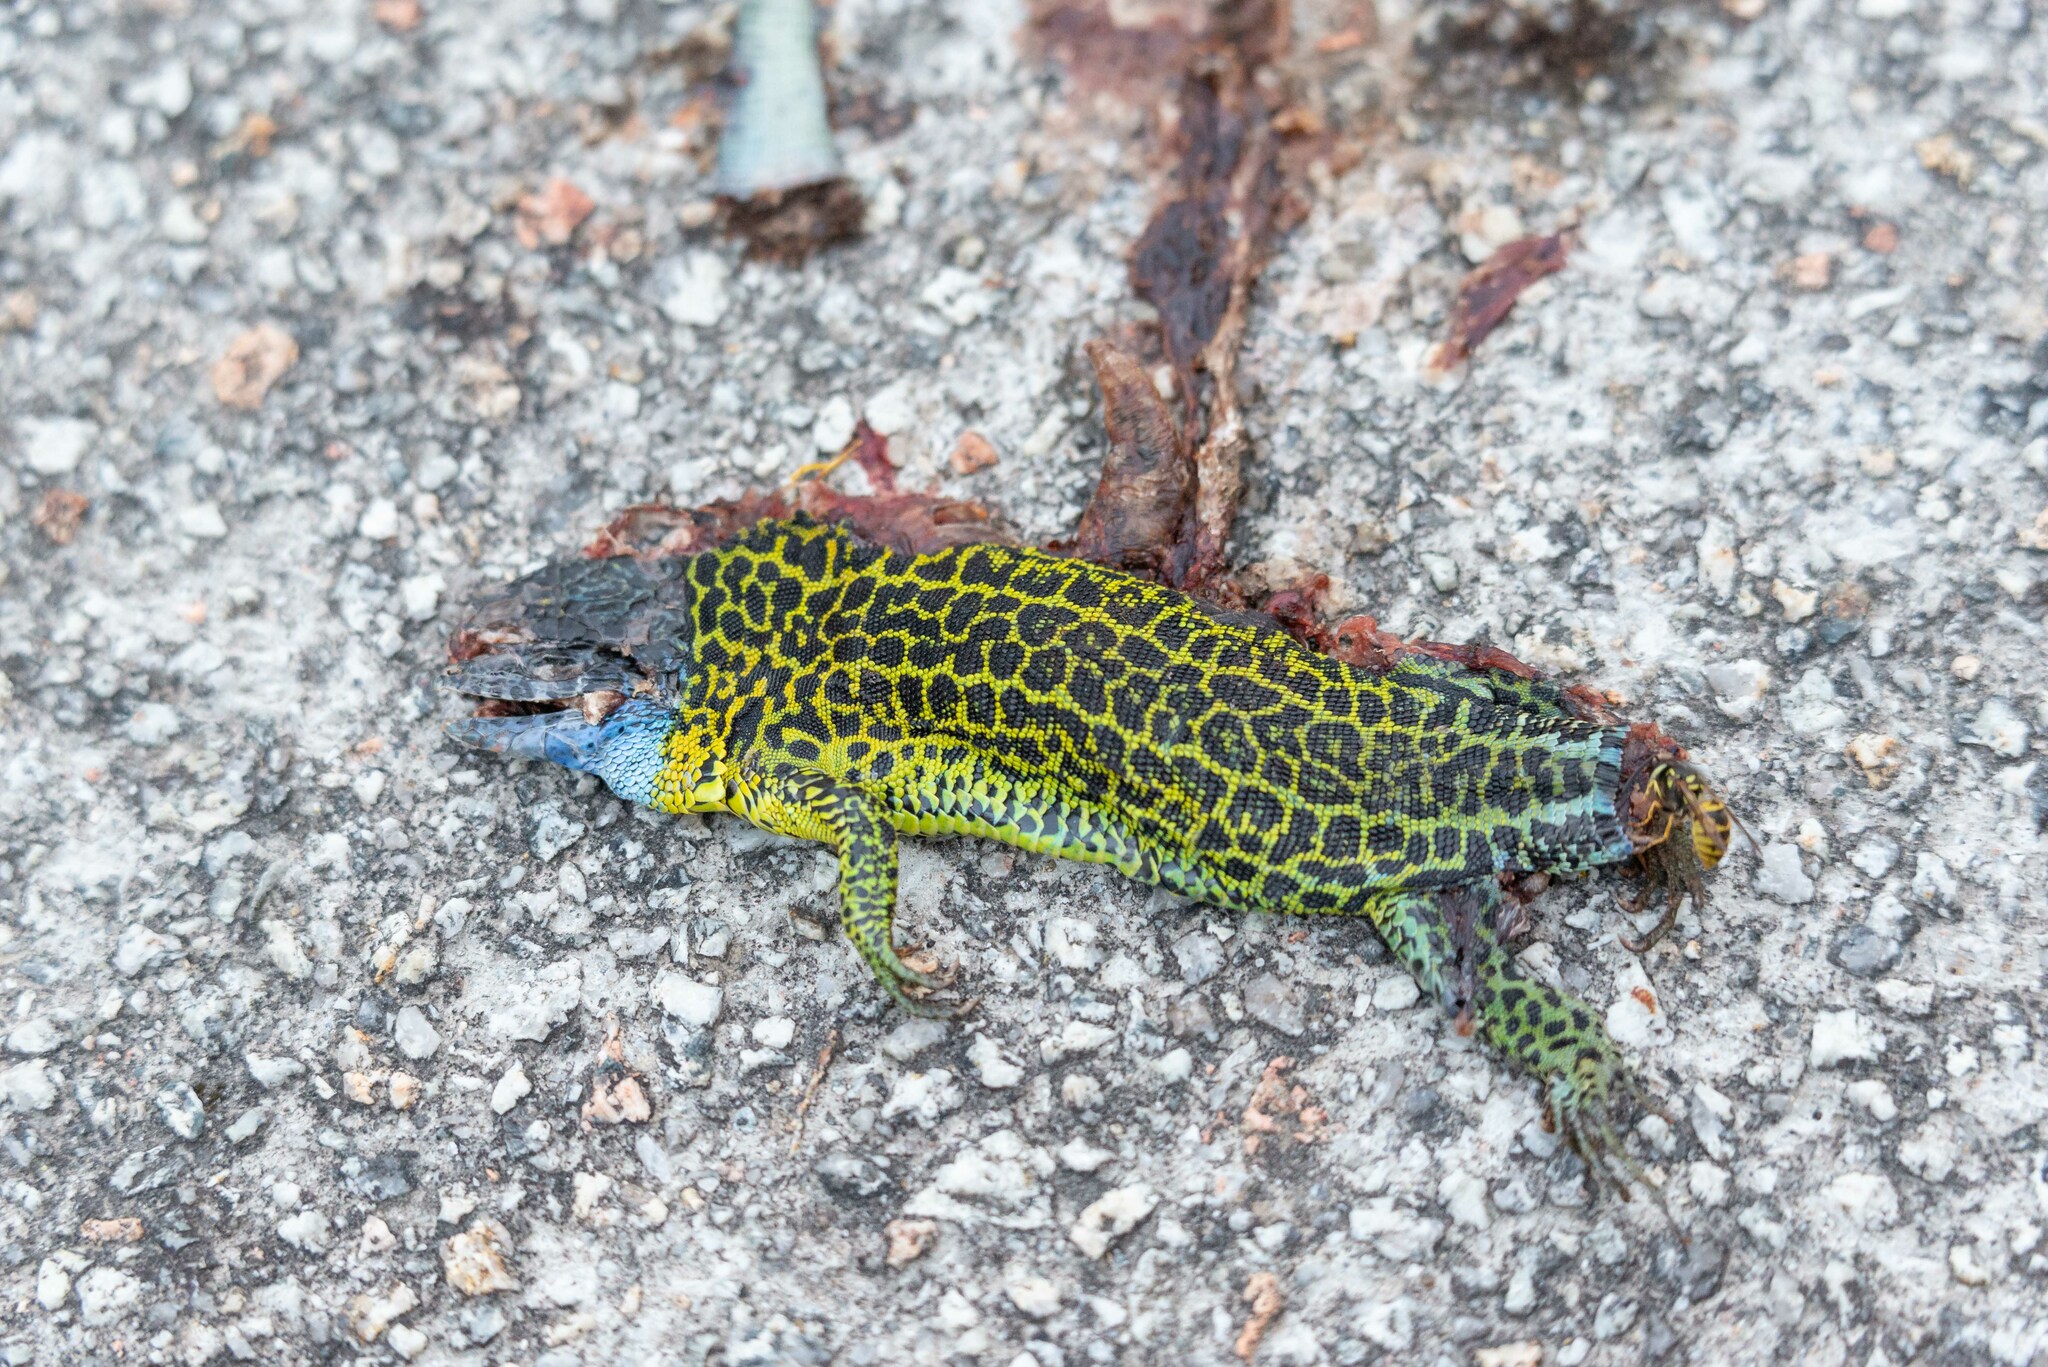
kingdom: Animalia
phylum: Chordata
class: Squamata
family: Lacertidae
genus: Lacerta
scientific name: Lacerta schreiberi
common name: Iberian emerald lizard
